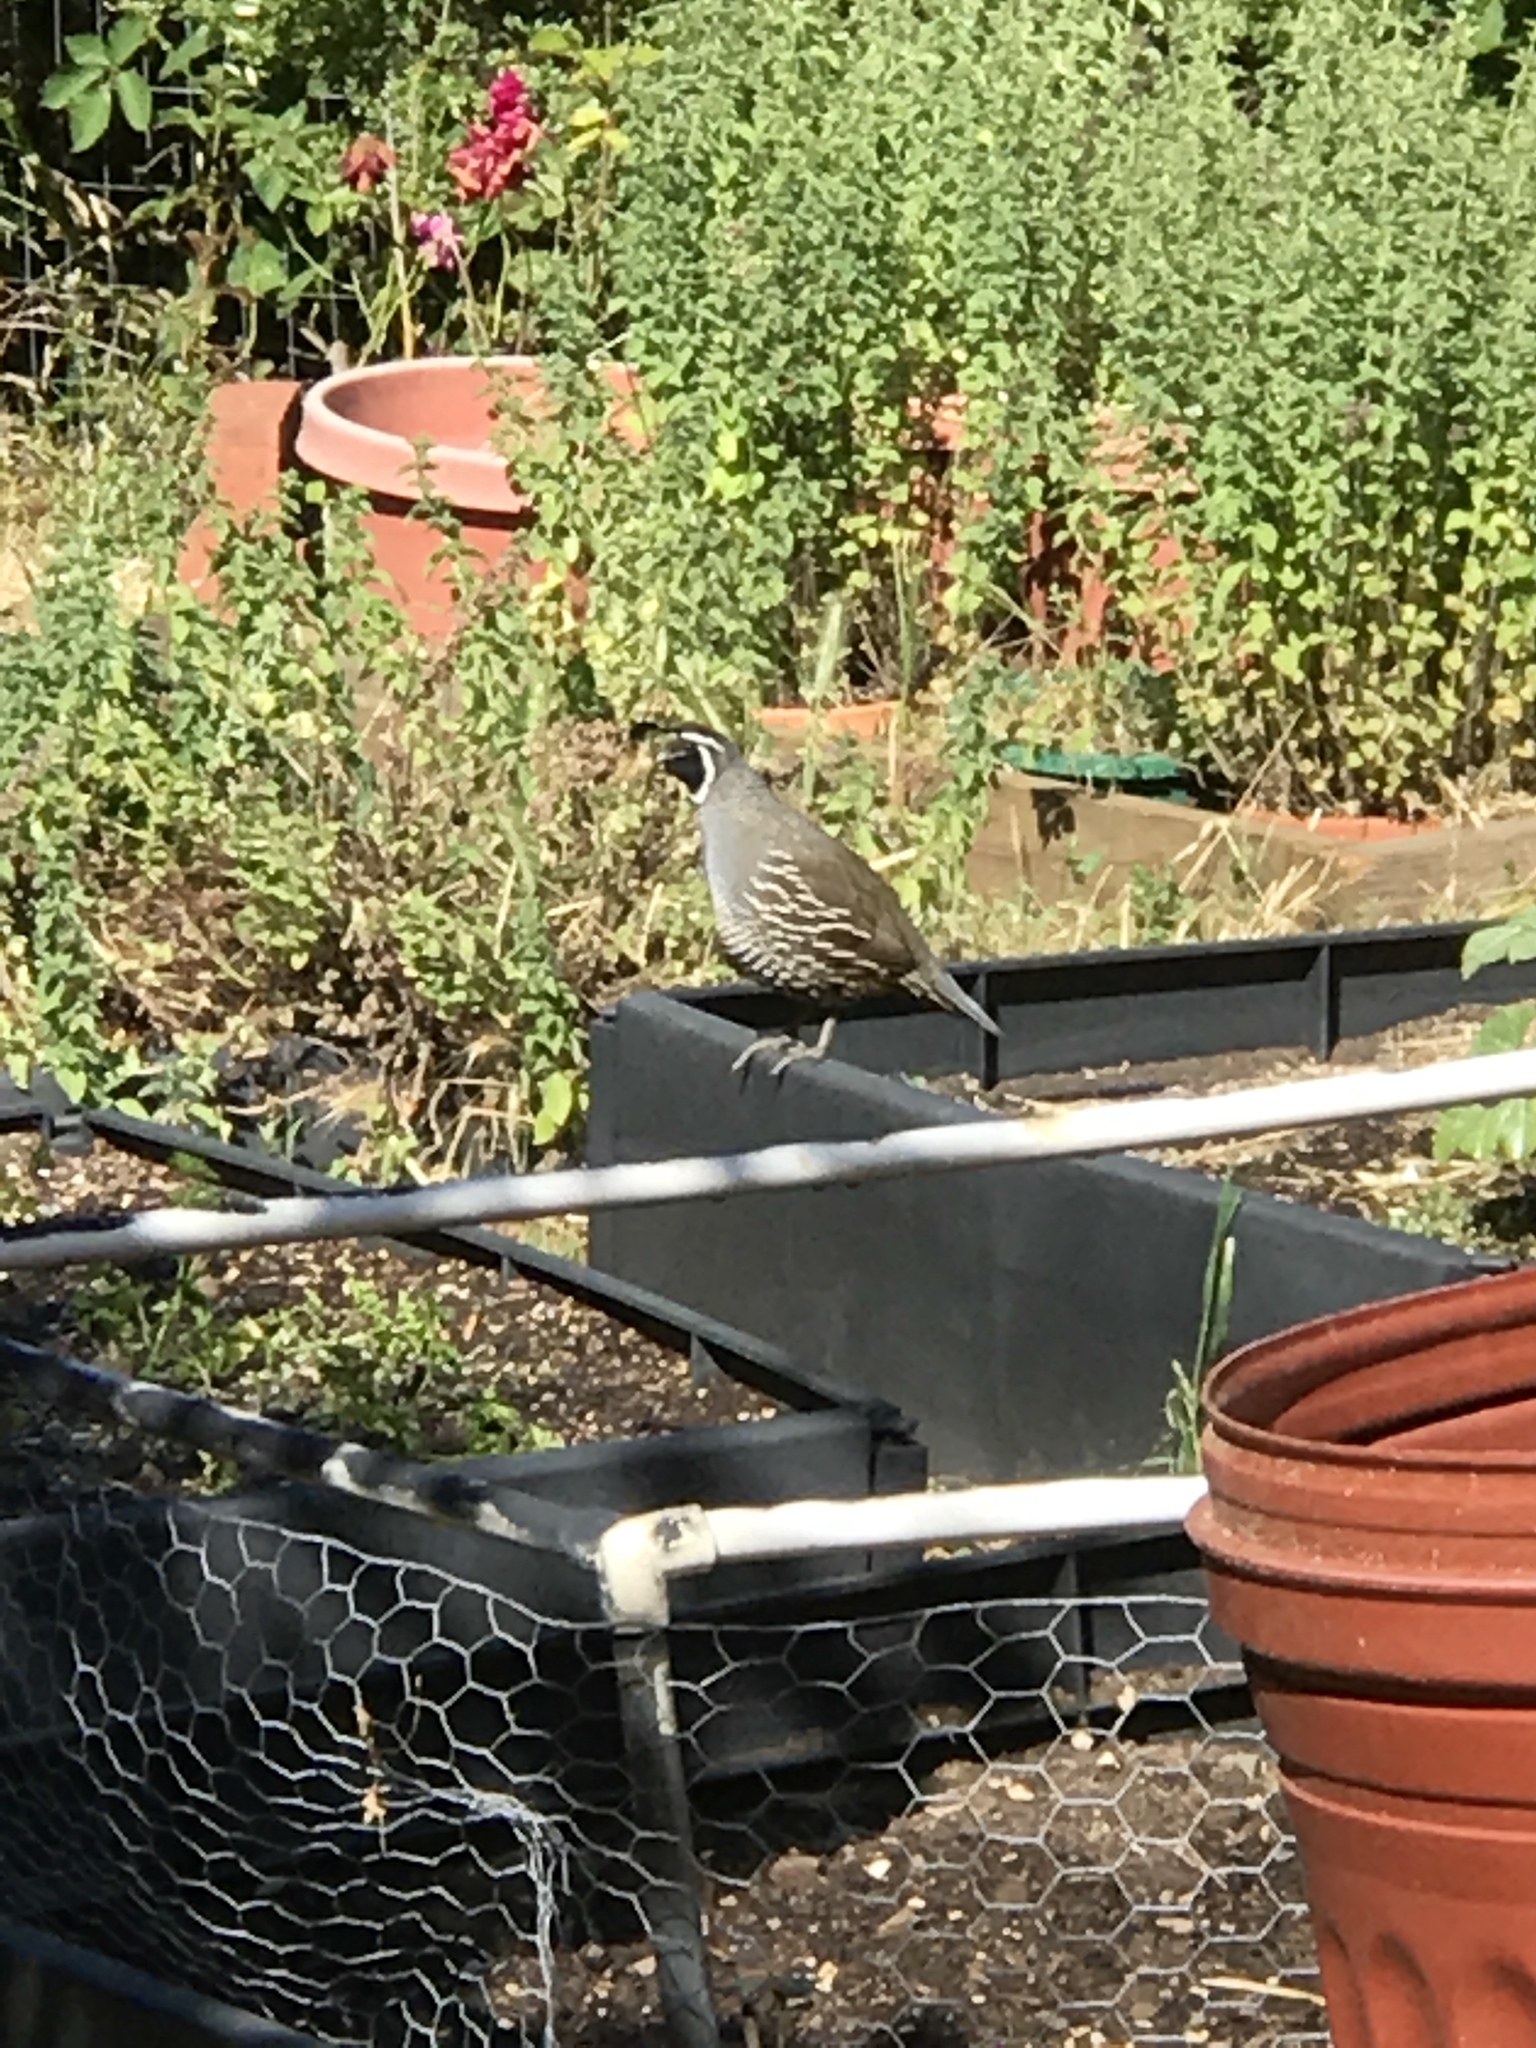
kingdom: Animalia
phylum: Chordata
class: Aves
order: Galliformes
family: Odontophoridae
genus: Callipepla
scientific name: Callipepla californica
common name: California quail
